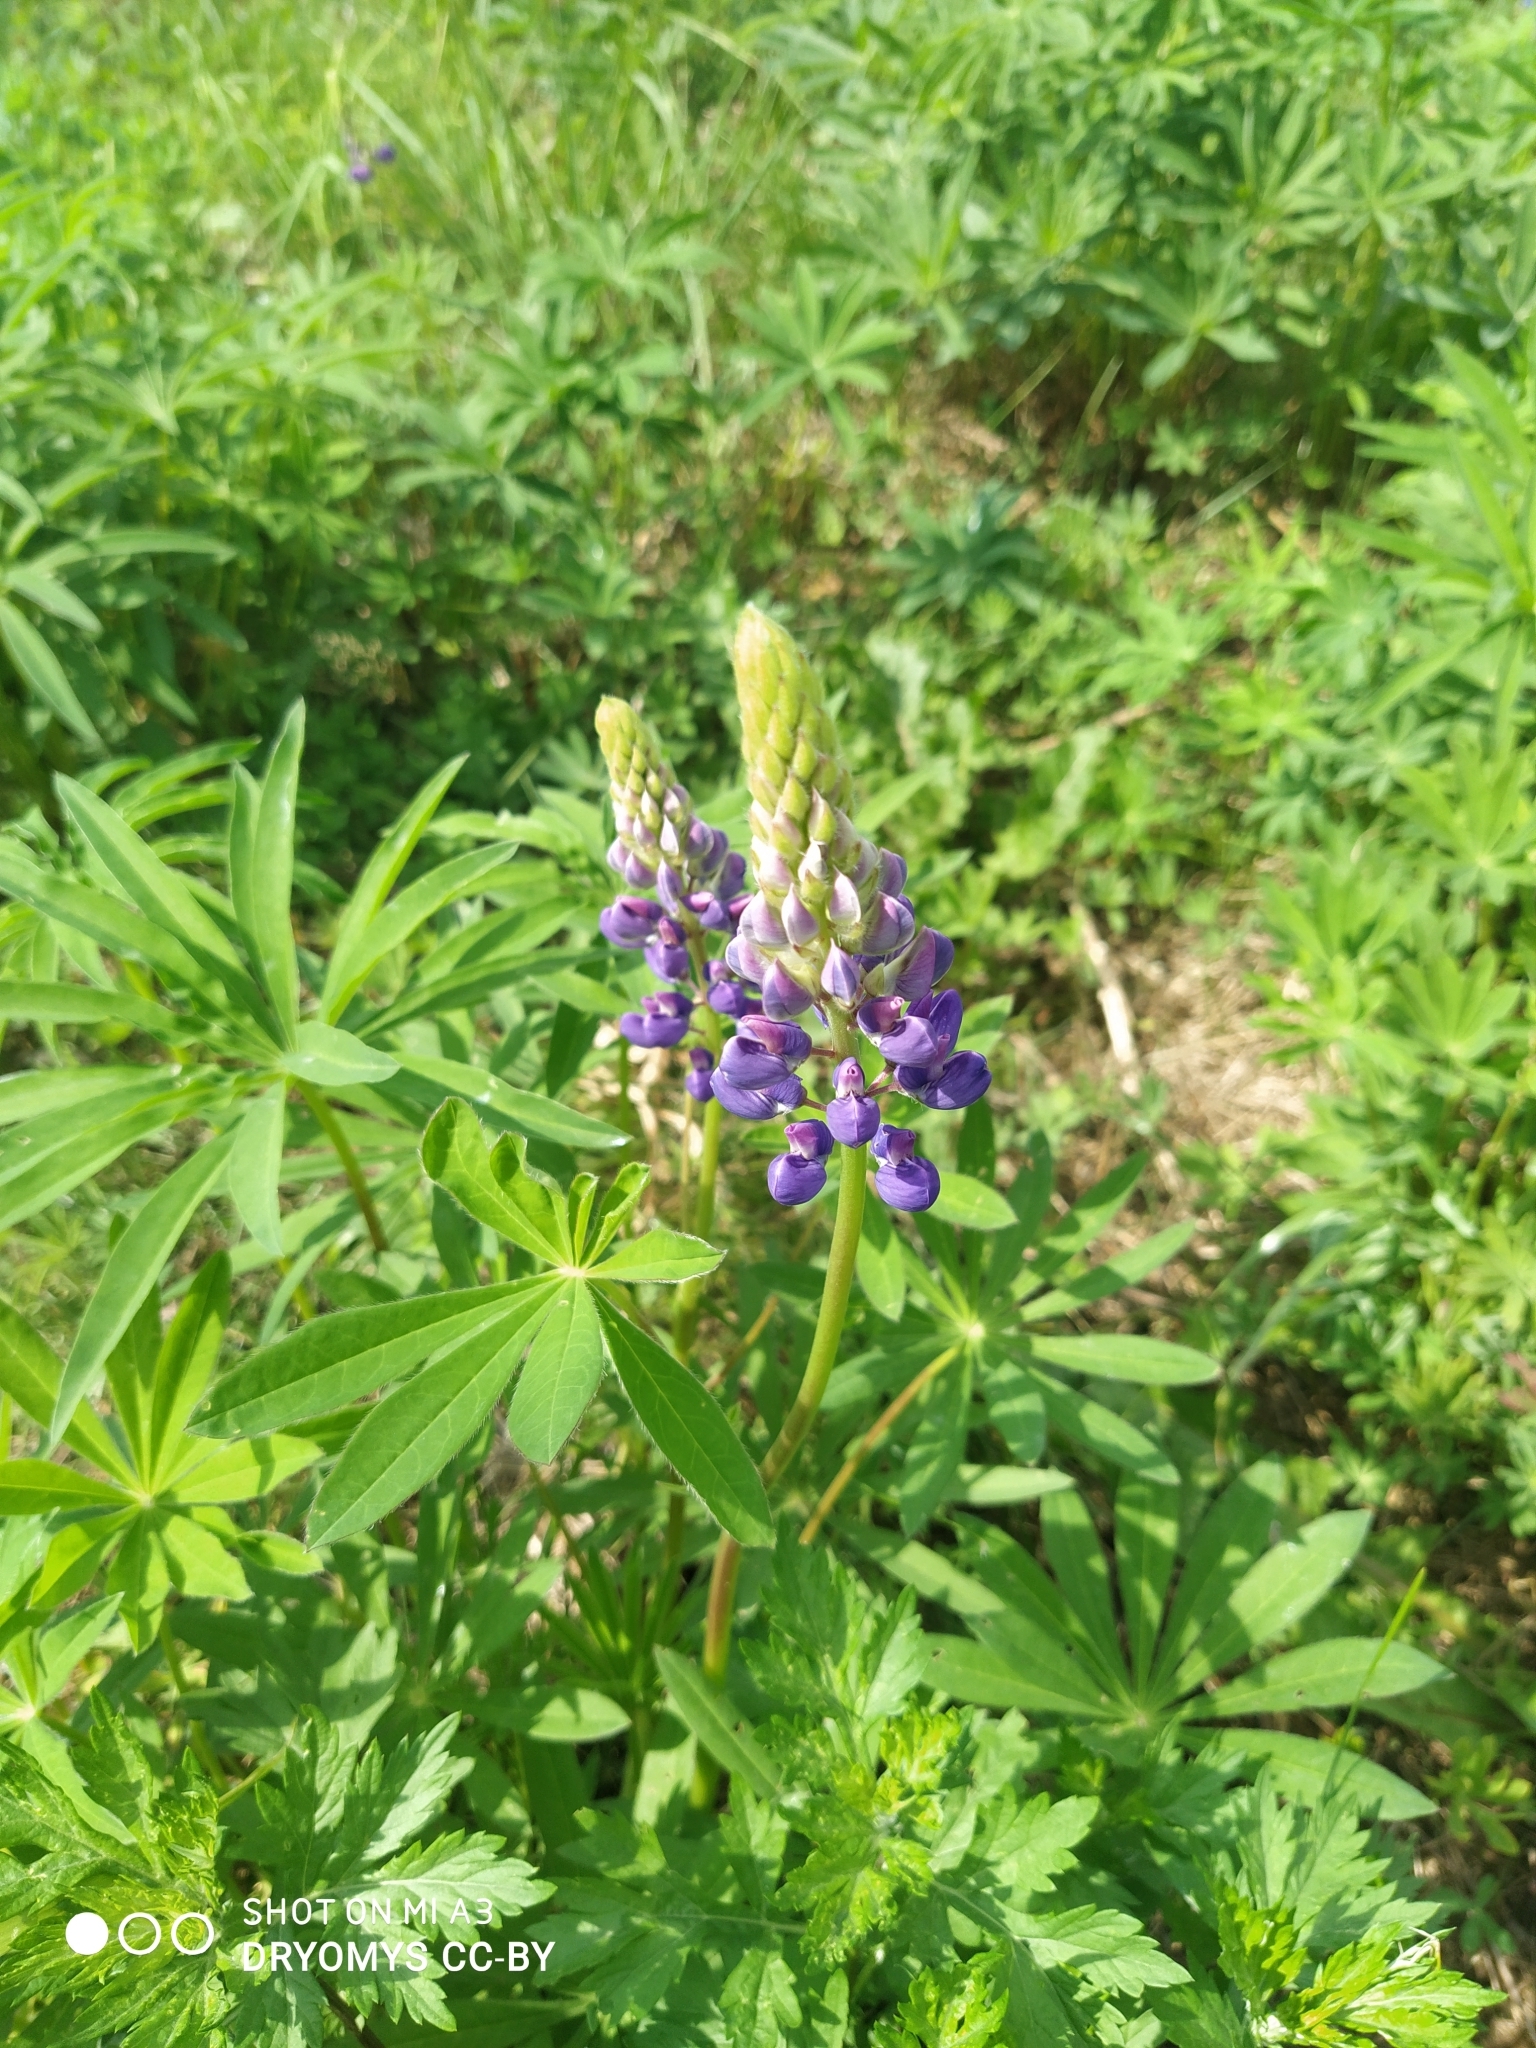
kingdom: Plantae
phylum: Tracheophyta
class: Magnoliopsida
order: Fabales
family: Fabaceae
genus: Lupinus
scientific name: Lupinus polyphyllus
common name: Garden lupin
